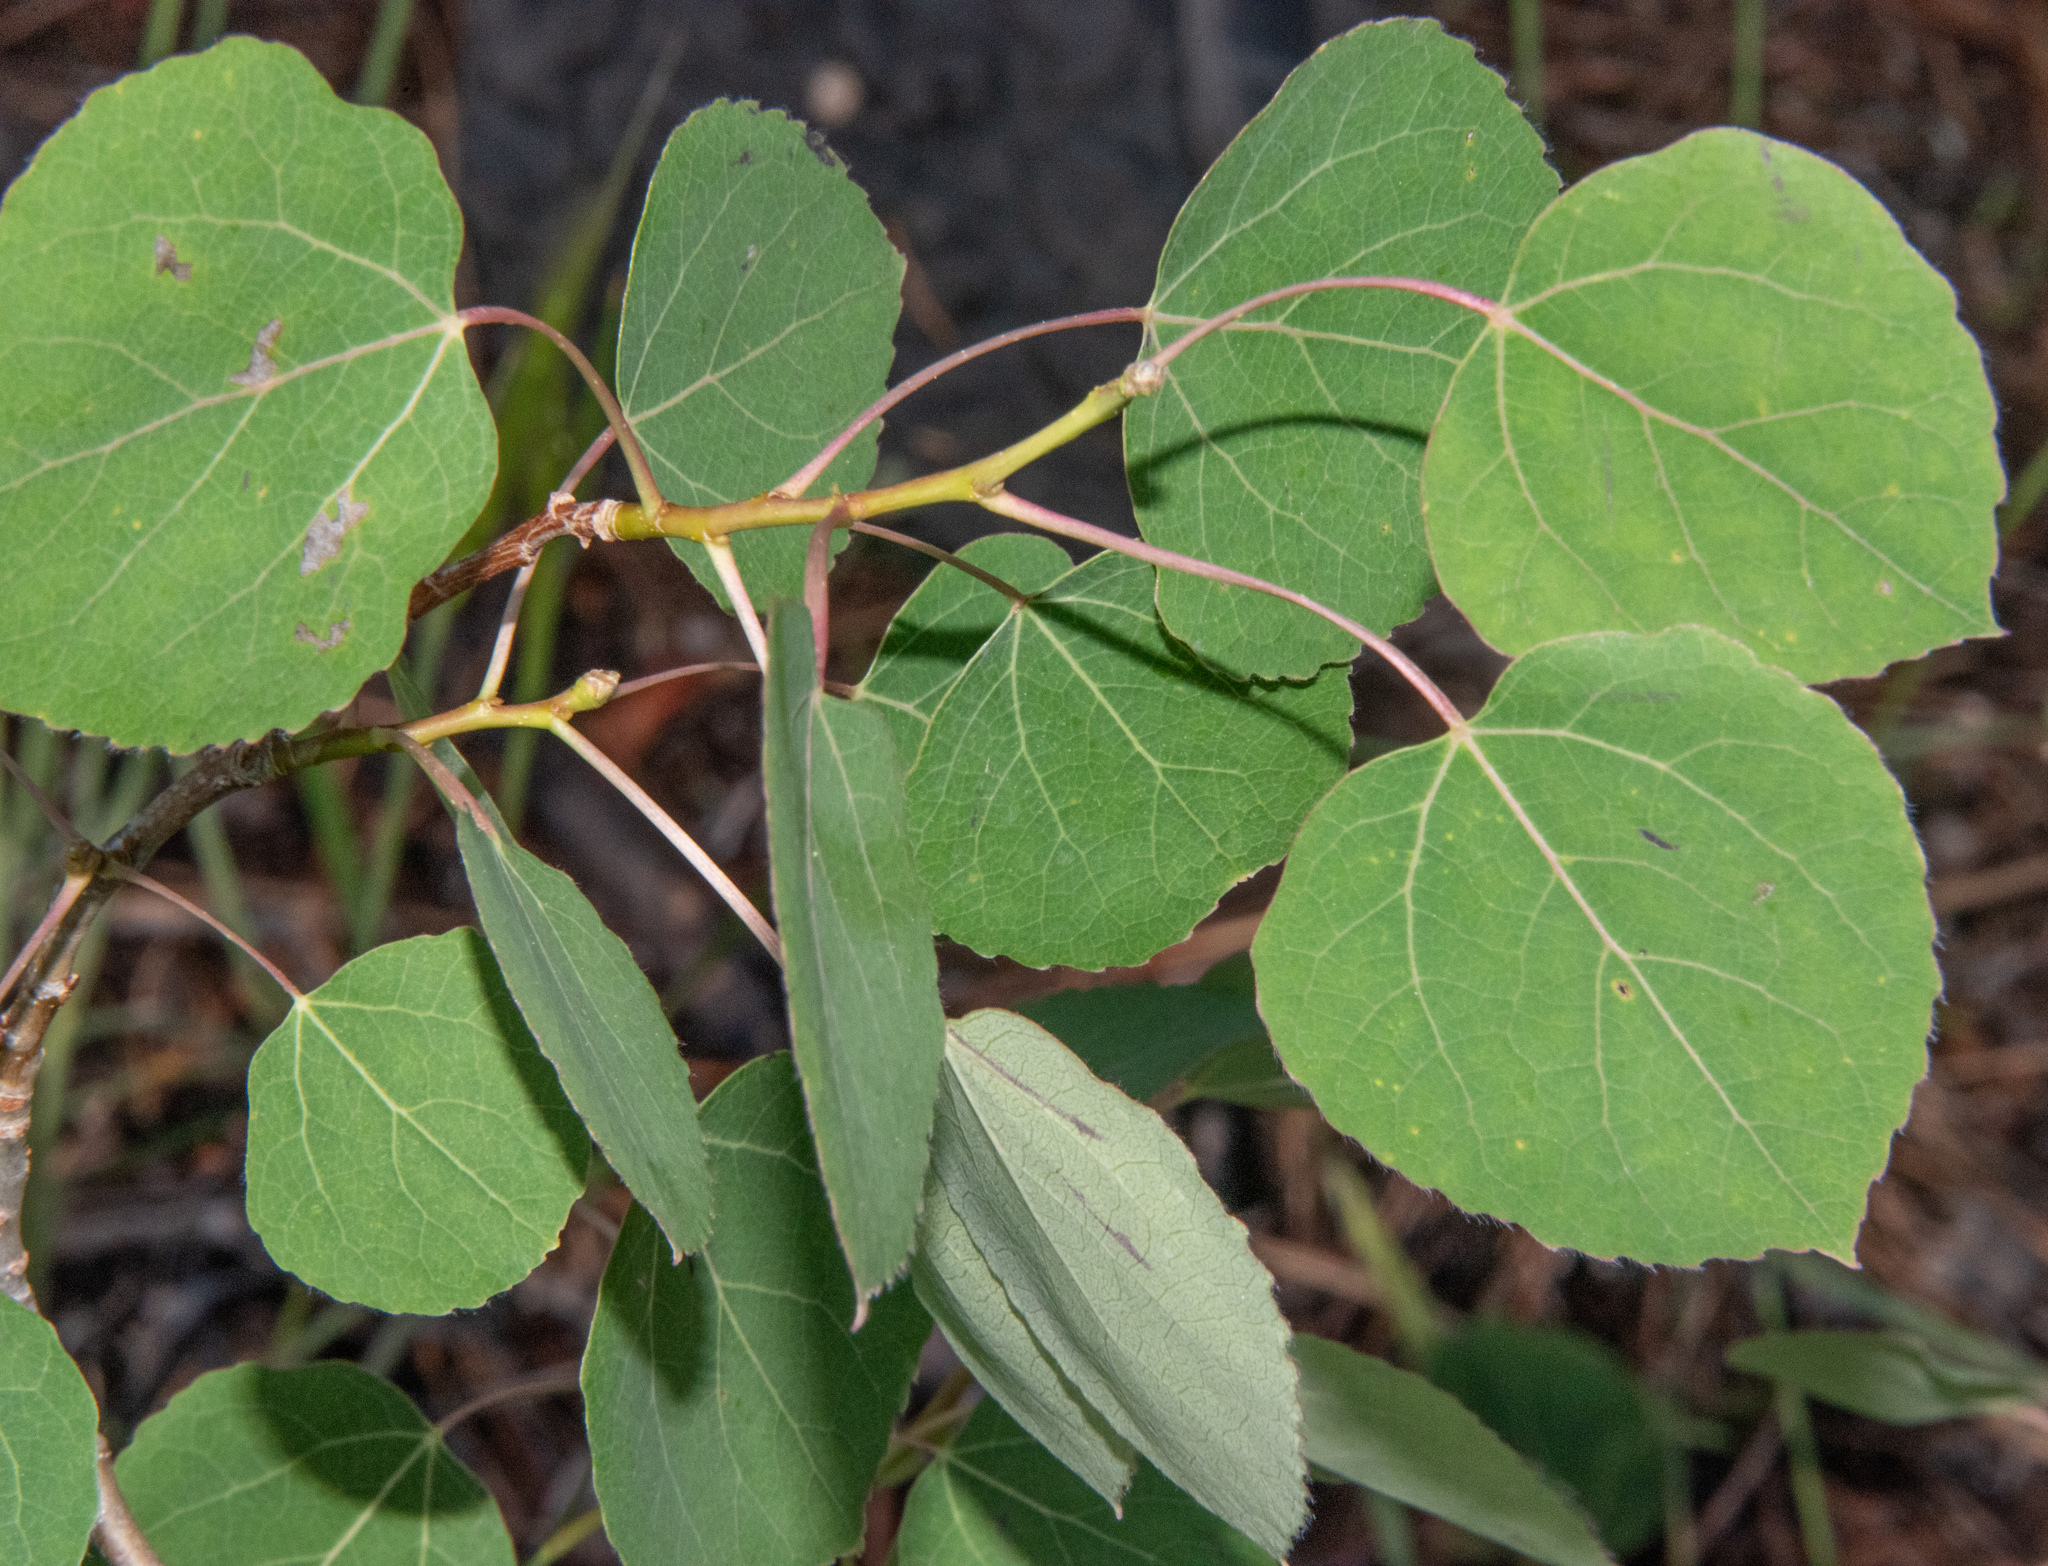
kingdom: Plantae
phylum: Tracheophyta
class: Magnoliopsida
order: Malpighiales
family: Salicaceae
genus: Populus
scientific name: Populus tremuloides
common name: Quaking aspen
